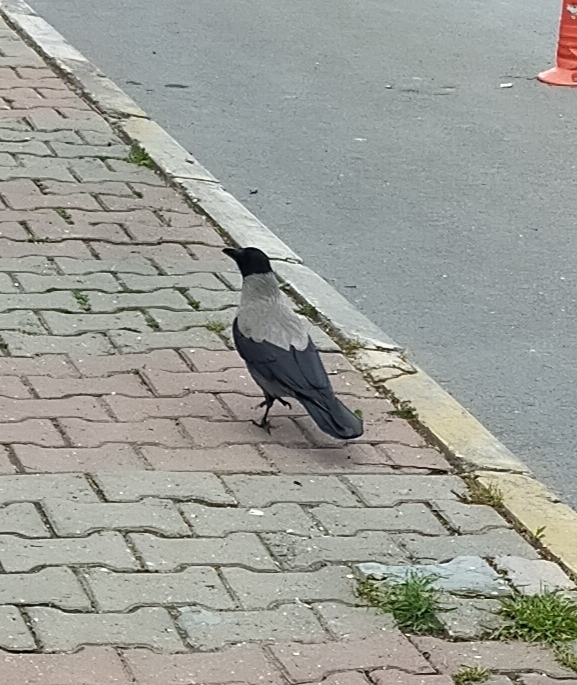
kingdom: Animalia
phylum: Chordata
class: Aves
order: Passeriformes
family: Corvidae
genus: Corvus
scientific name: Corvus cornix
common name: Hooded crow
